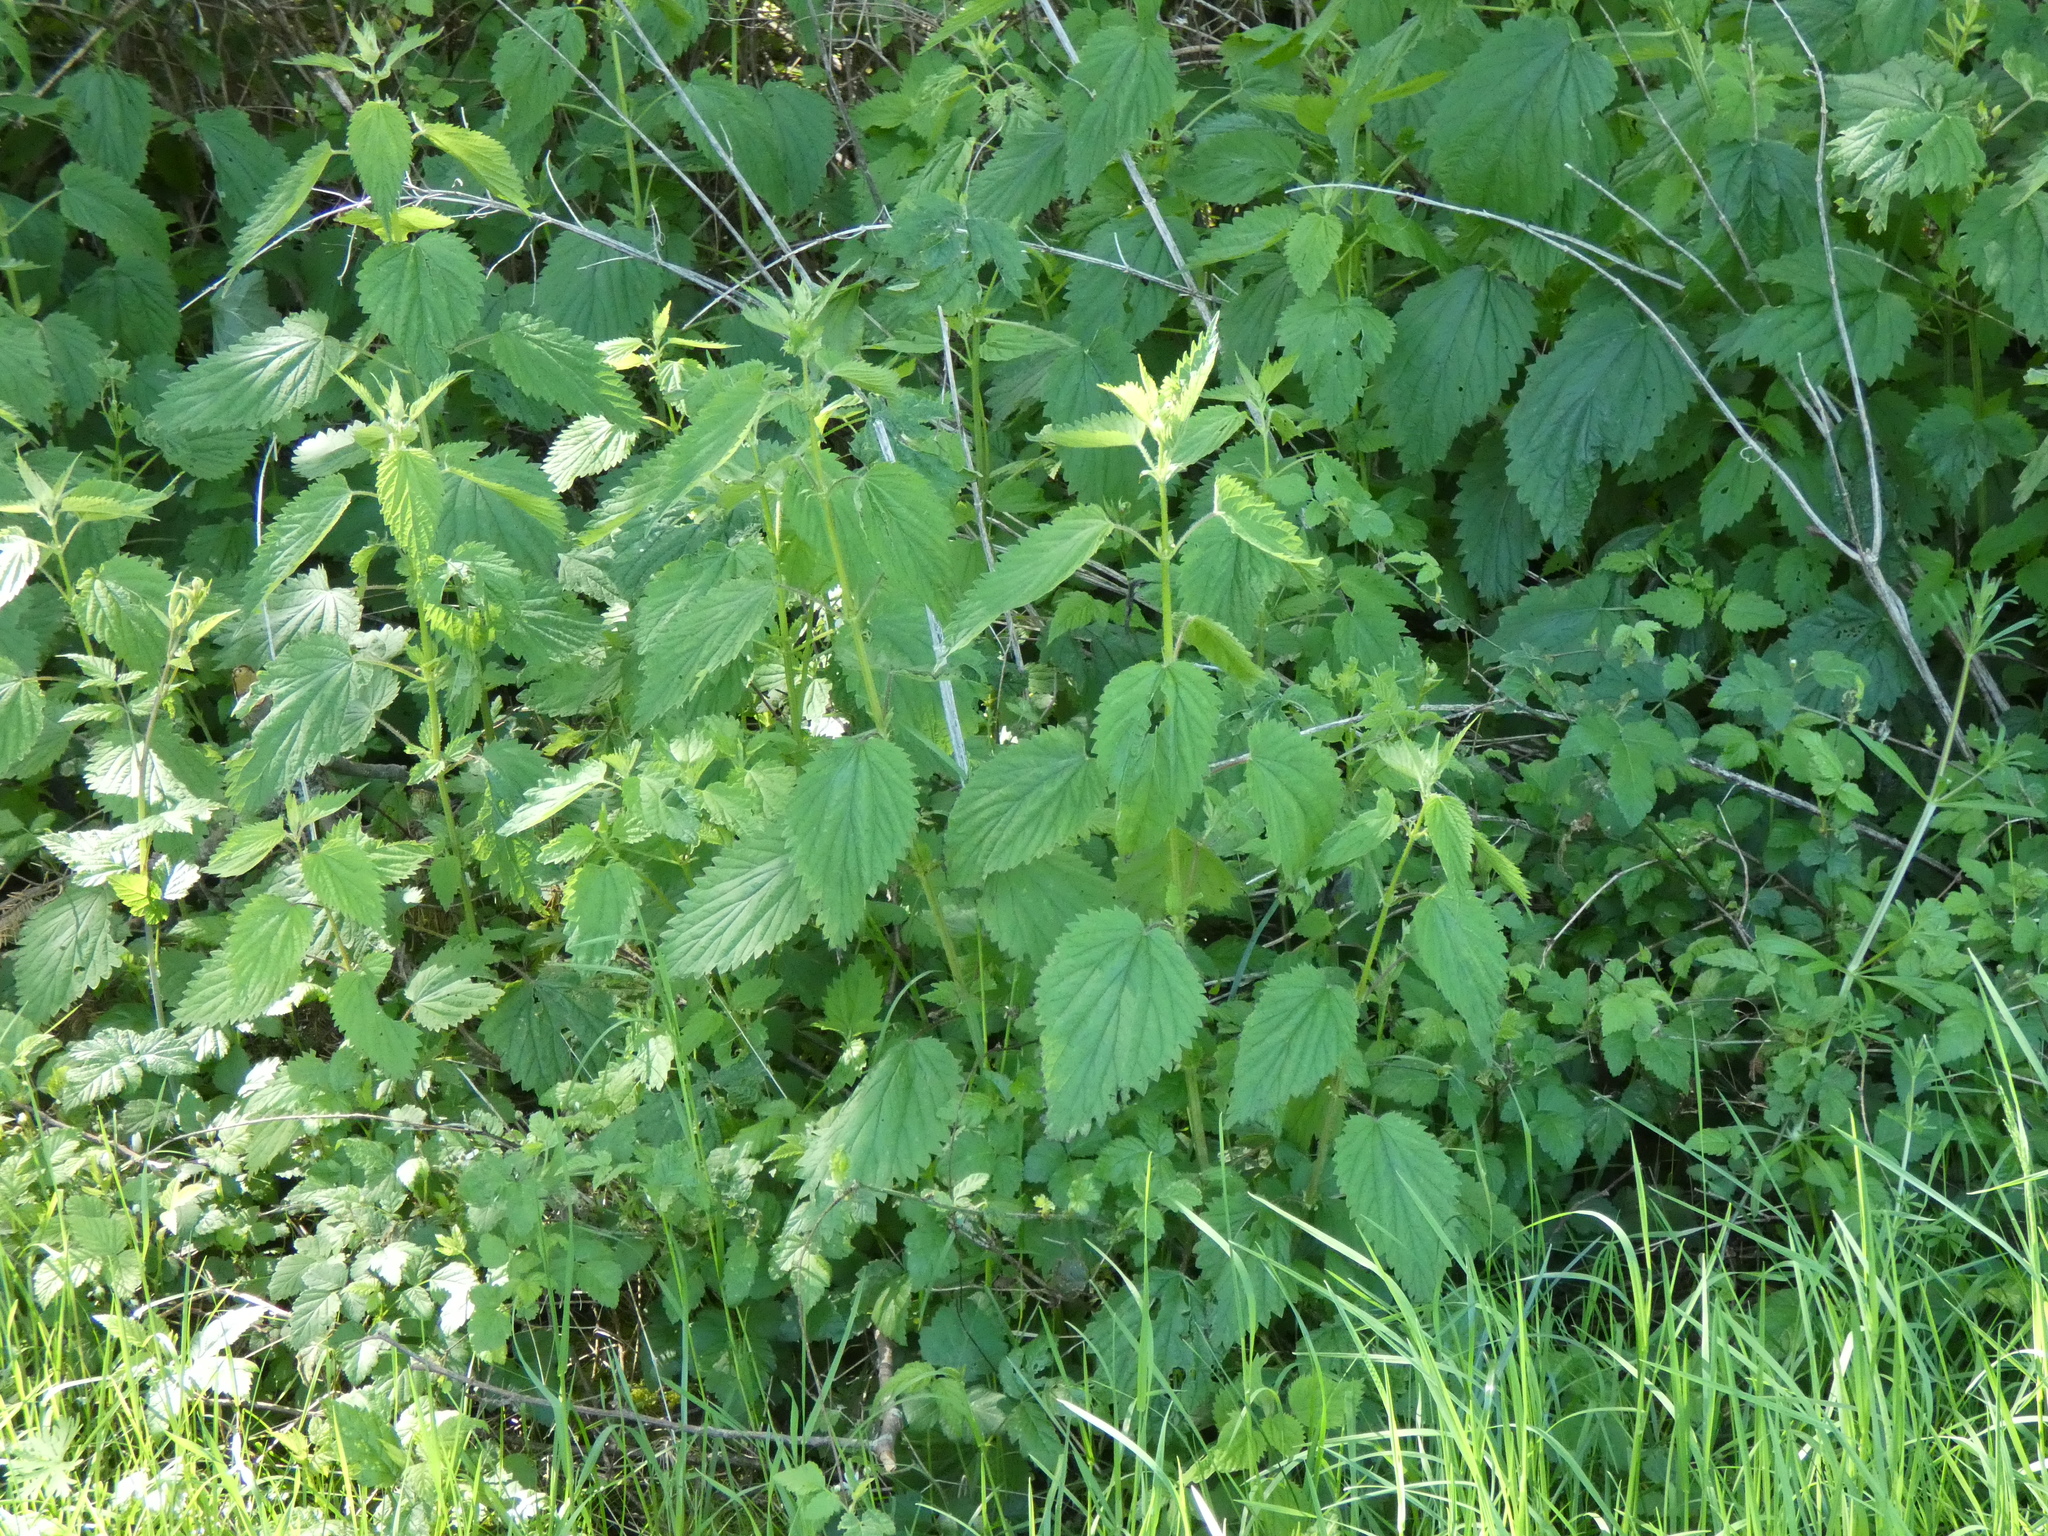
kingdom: Plantae
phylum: Tracheophyta
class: Magnoliopsida
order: Rosales
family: Urticaceae
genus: Urtica
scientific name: Urtica gracilis
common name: Slender stinging nettle
